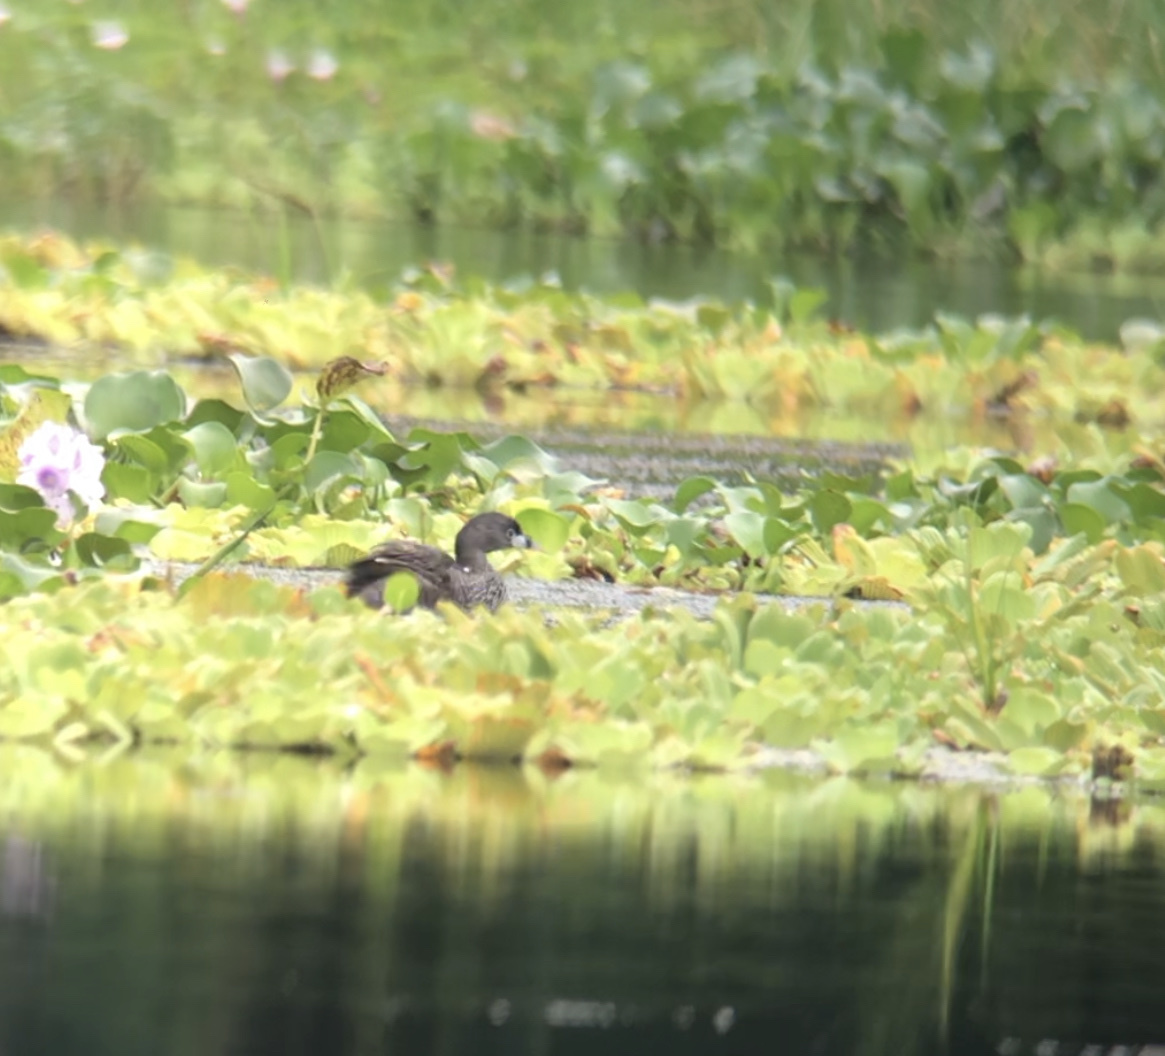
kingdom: Animalia
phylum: Chordata
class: Aves
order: Podicipediformes
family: Podicipedidae
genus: Podilymbus
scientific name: Podilymbus podiceps
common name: Pied-billed grebe
